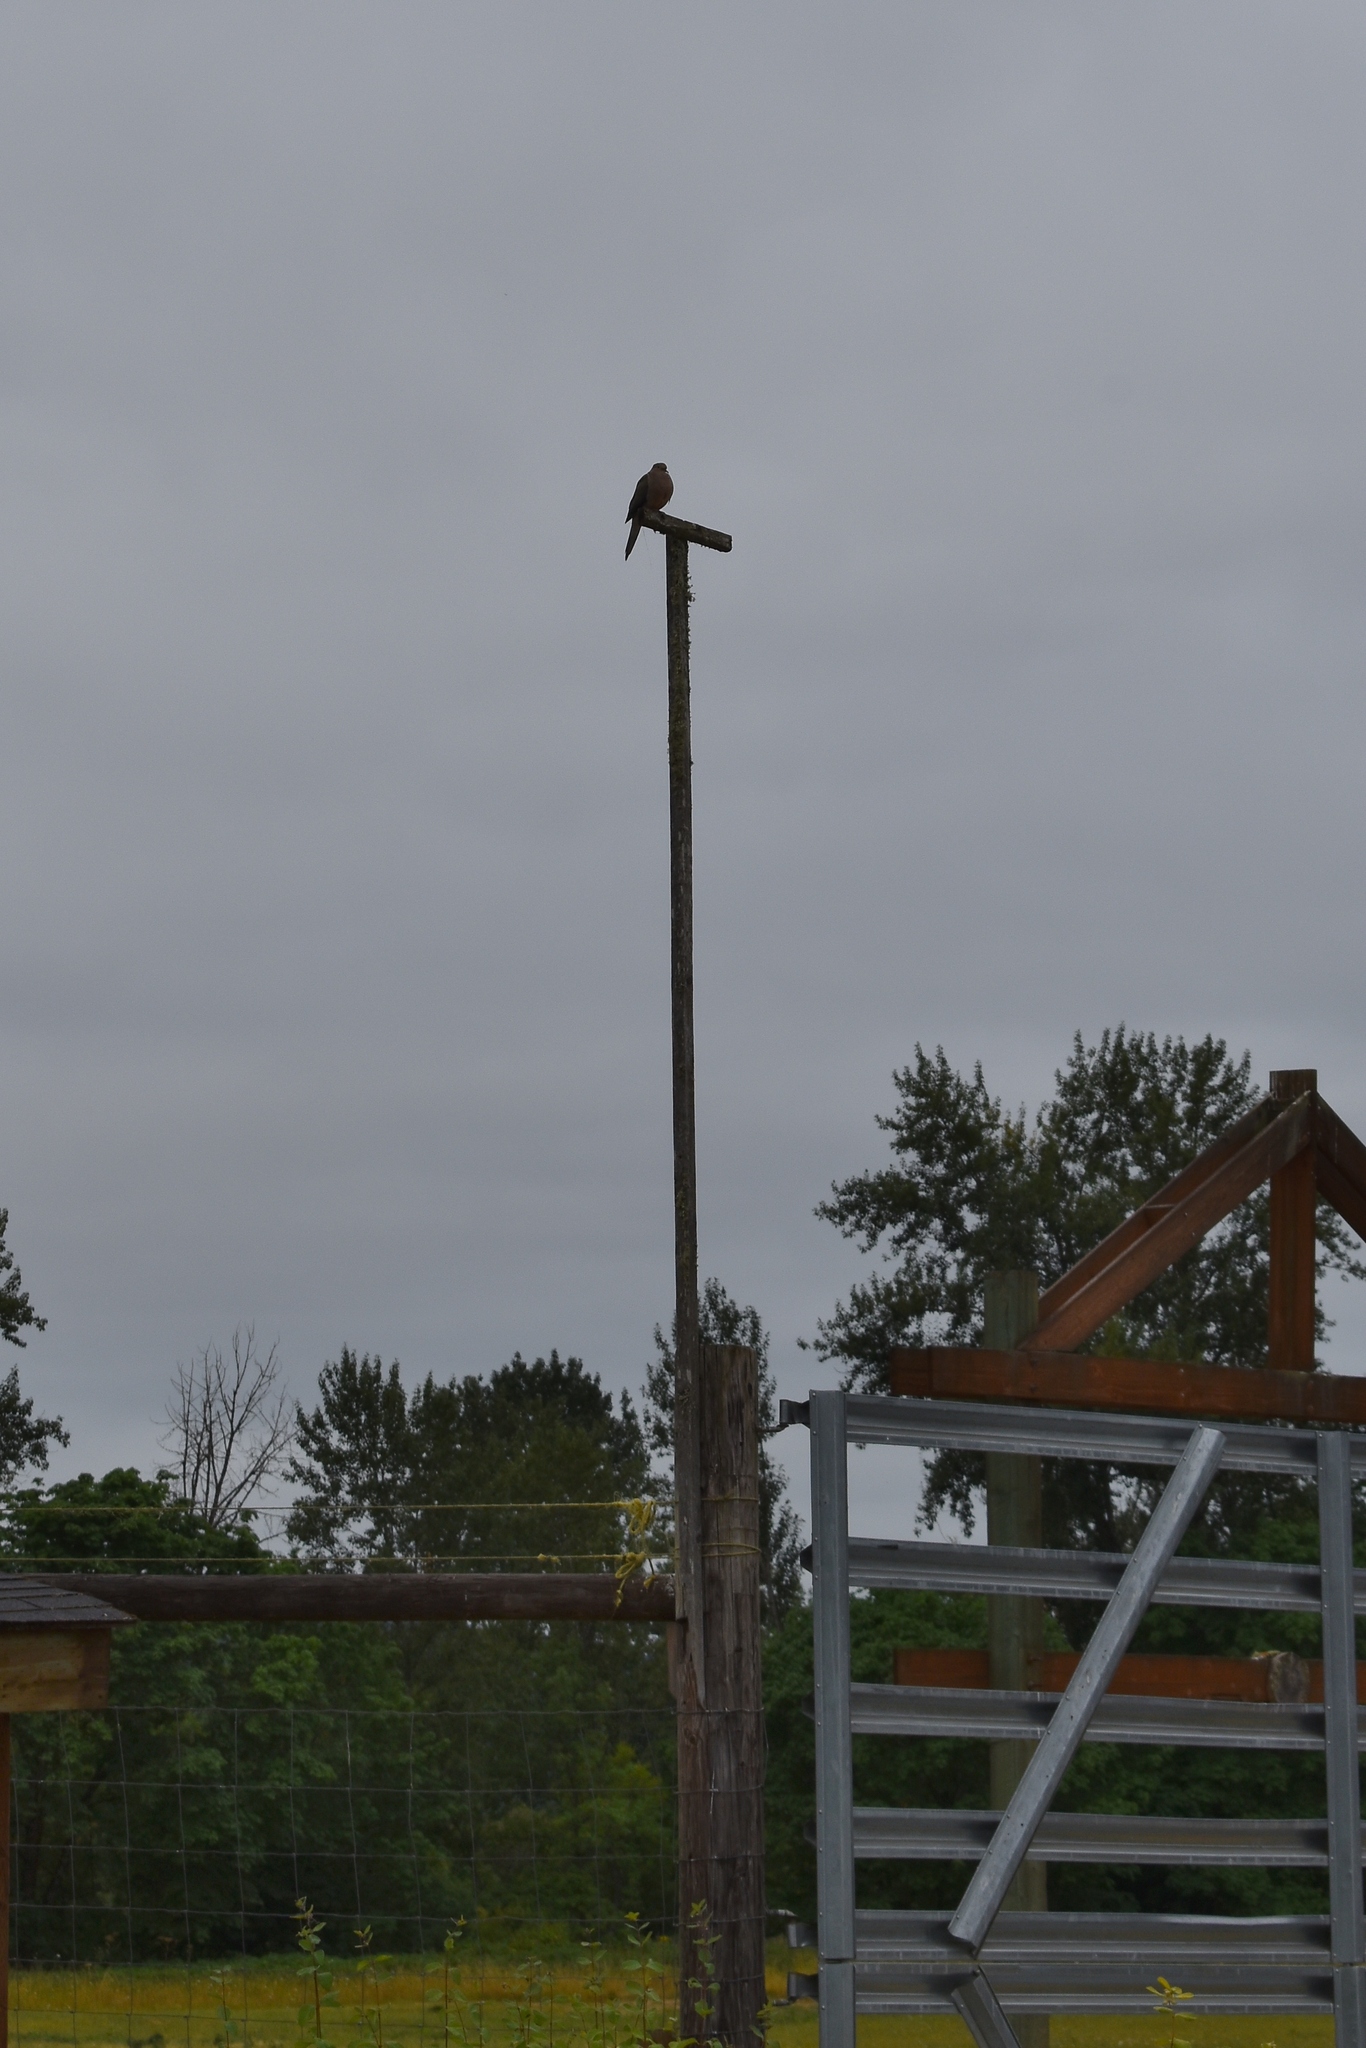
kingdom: Animalia
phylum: Chordata
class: Aves
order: Columbiformes
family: Columbidae
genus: Zenaida
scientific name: Zenaida macroura
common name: Mourning dove
